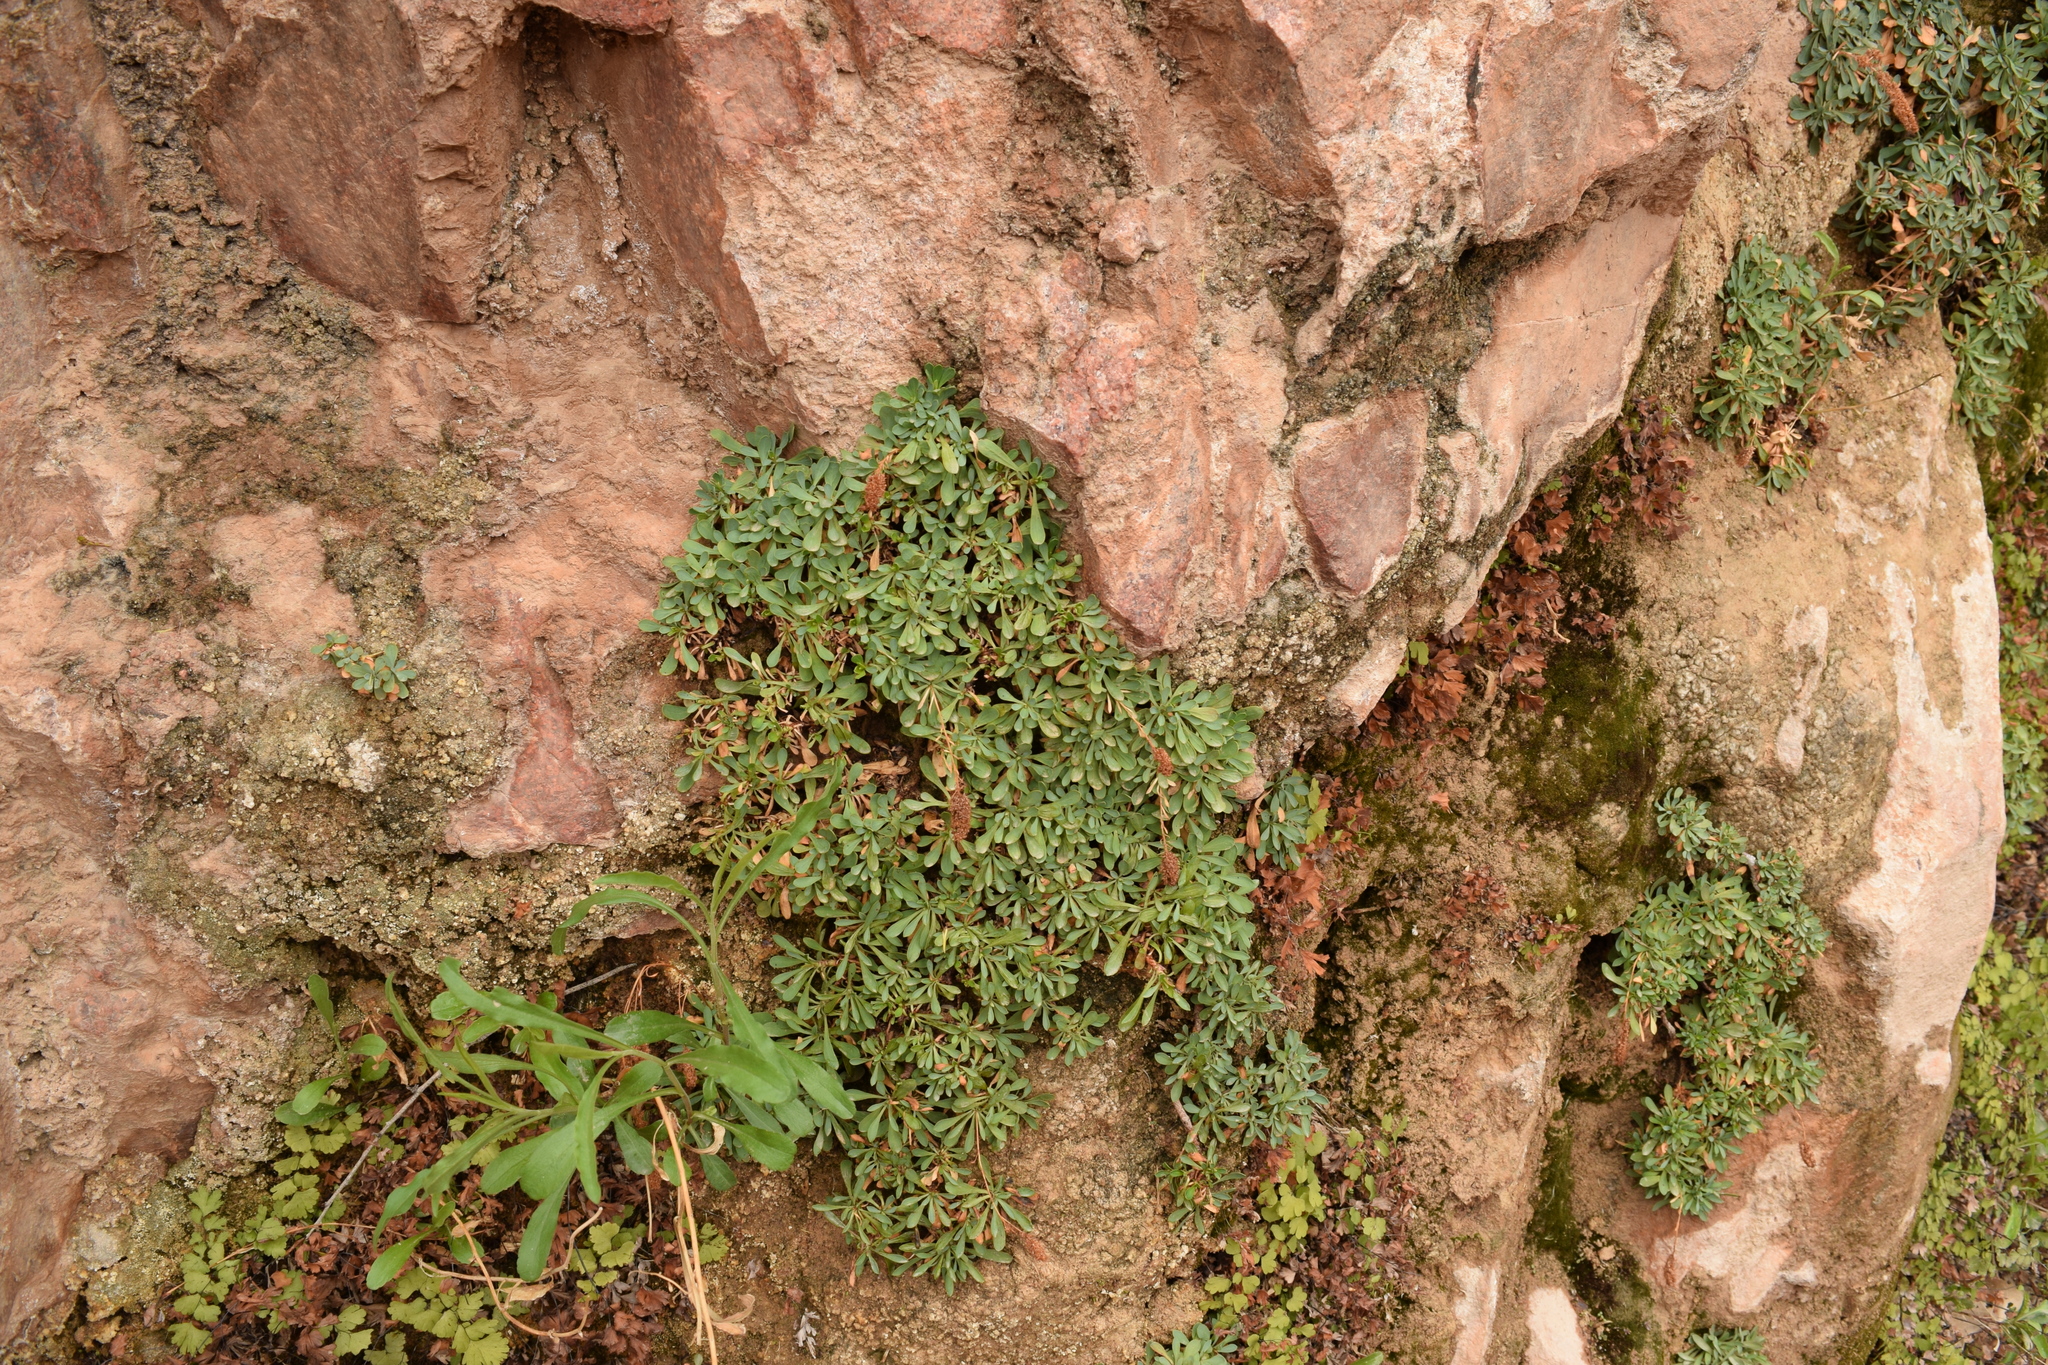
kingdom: Plantae
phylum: Tracheophyta
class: Magnoliopsida
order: Rosales
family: Rosaceae
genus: Petrophytum
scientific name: Petrophytum caespitosum
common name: Mat rockspirea
